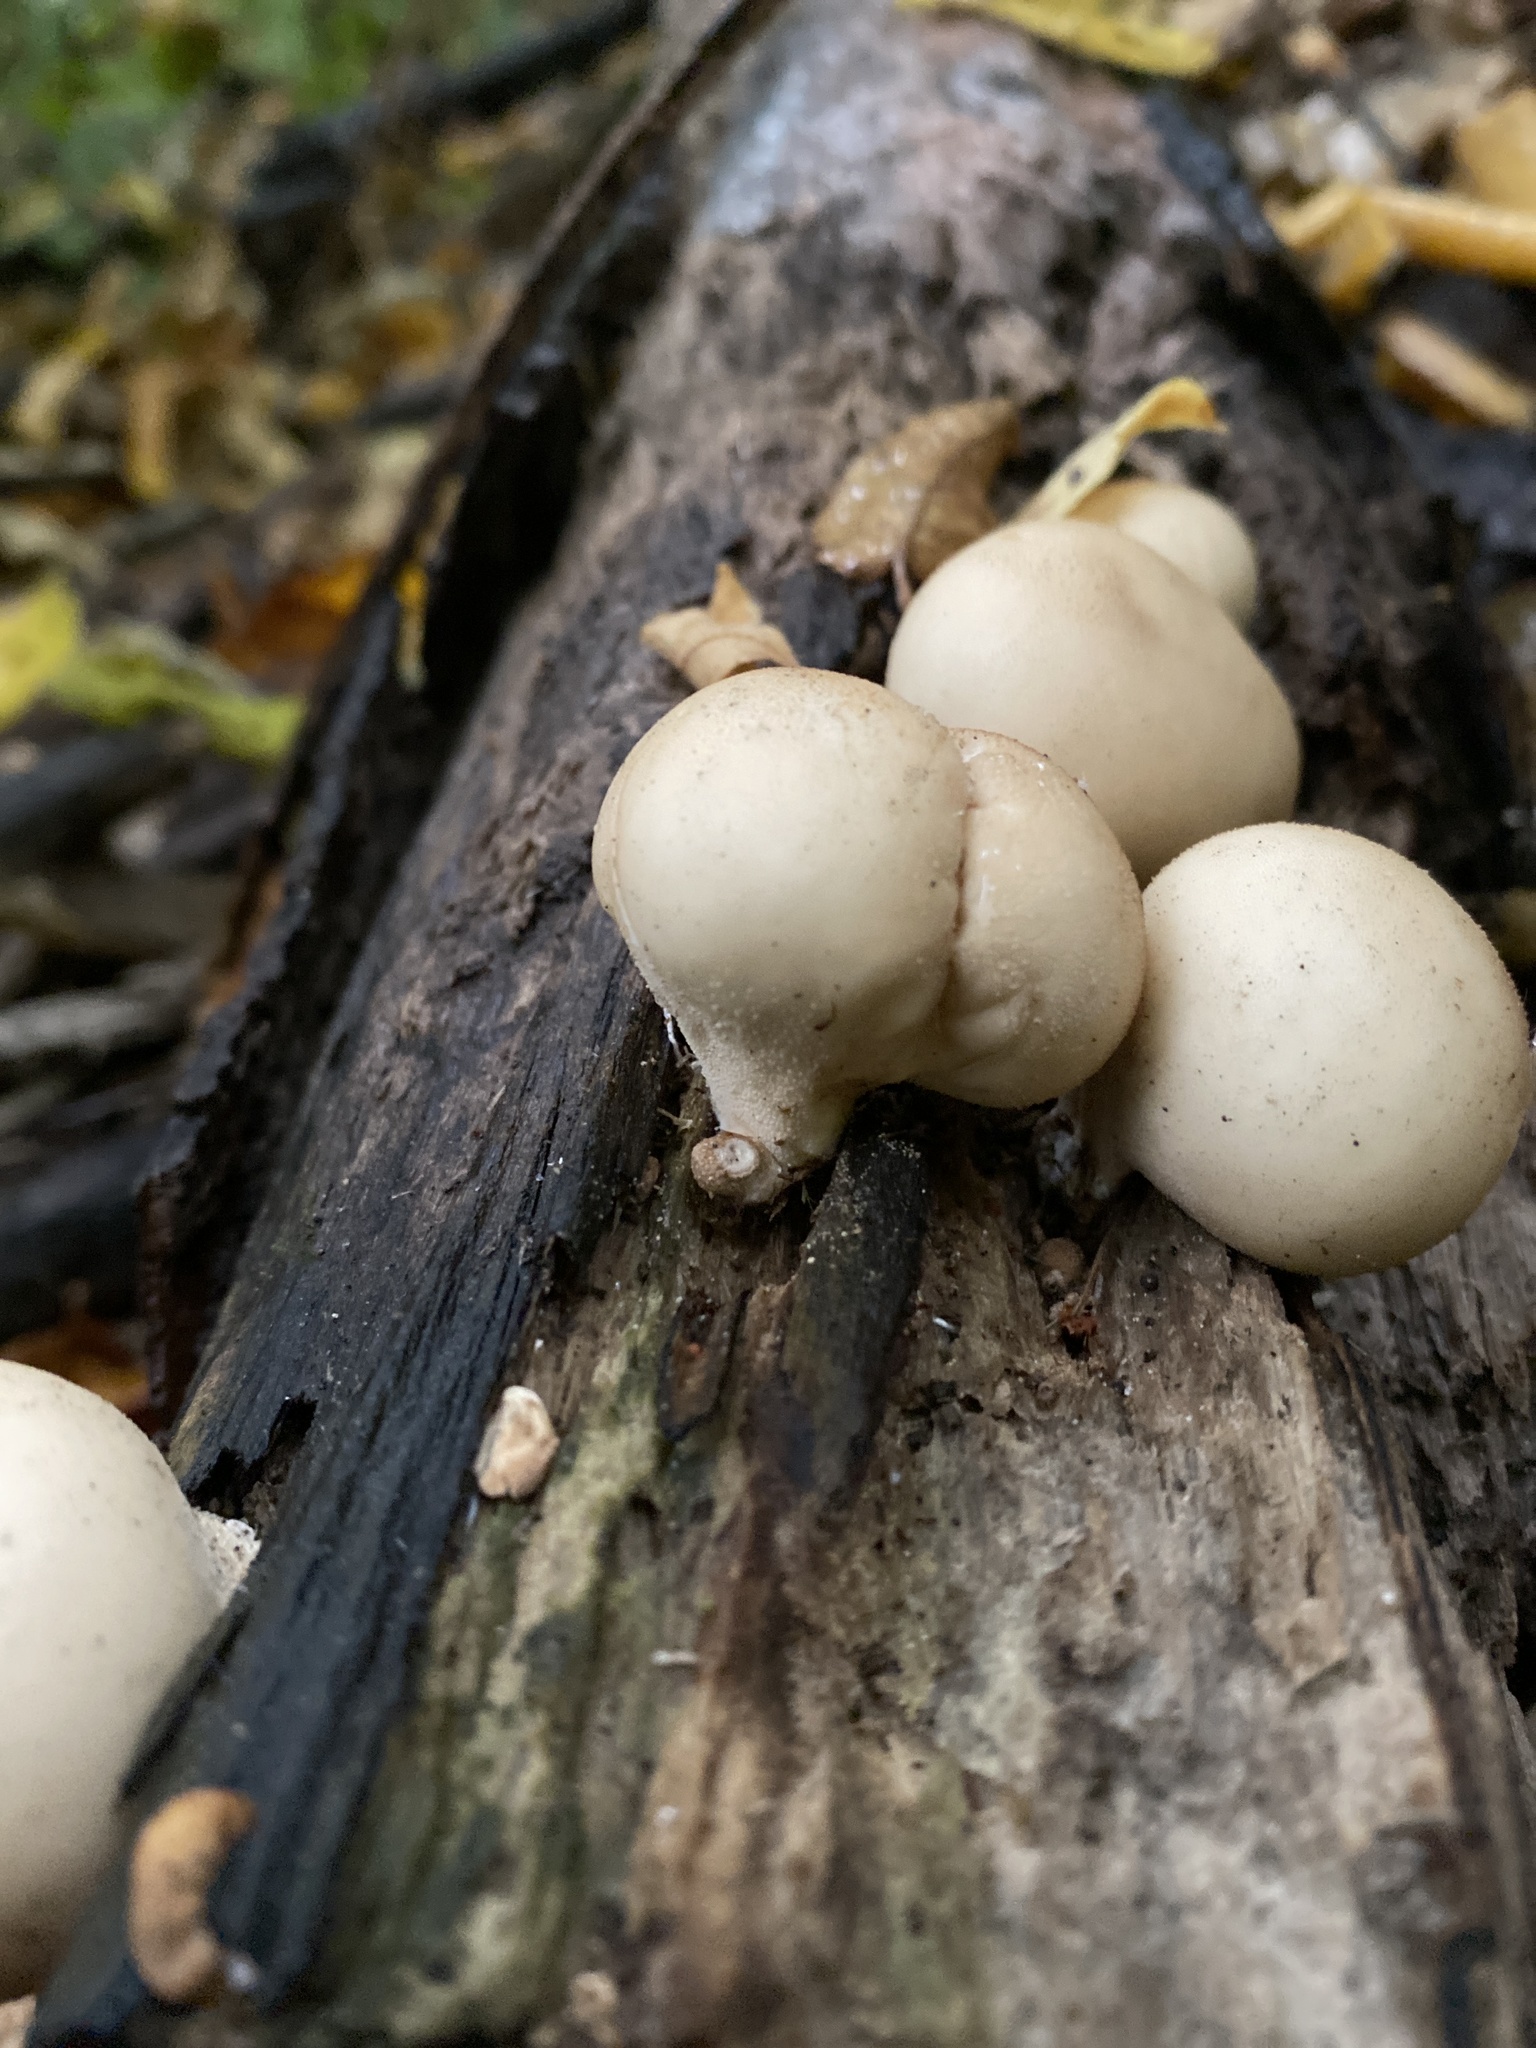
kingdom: Fungi
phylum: Basidiomycota
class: Agaricomycetes
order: Agaricales
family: Lycoperdaceae
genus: Apioperdon
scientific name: Apioperdon pyriforme
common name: Pear-shaped puffball
